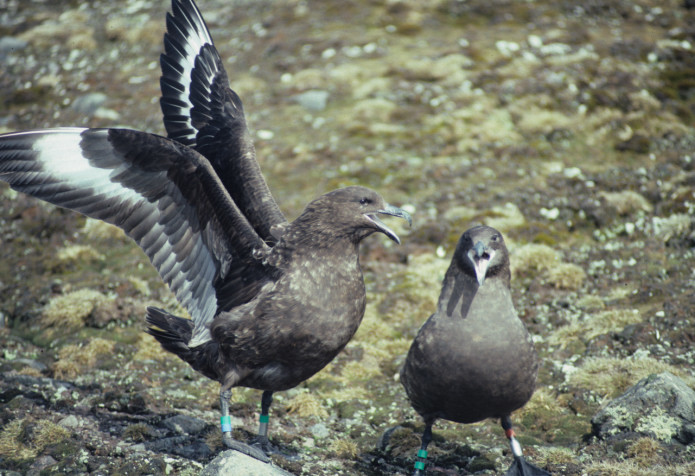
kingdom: Animalia
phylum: Chordata
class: Aves
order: Charadriiformes
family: Stercorariidae
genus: Stercorarius
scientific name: Stercorarius antarcticus
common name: Brown skua
